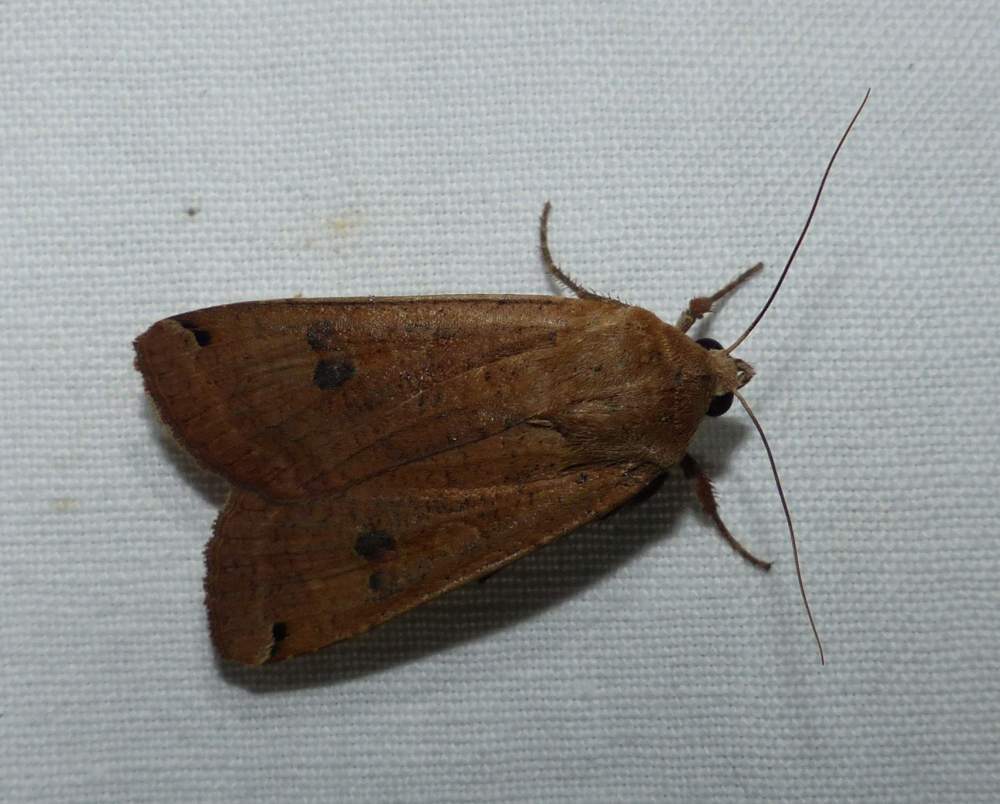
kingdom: Animalia
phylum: Arthropoda
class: Insecta
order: Lepidoptera
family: Noctuidae
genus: Noctua
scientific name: Noctua pronuba
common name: Large yellow underwing
